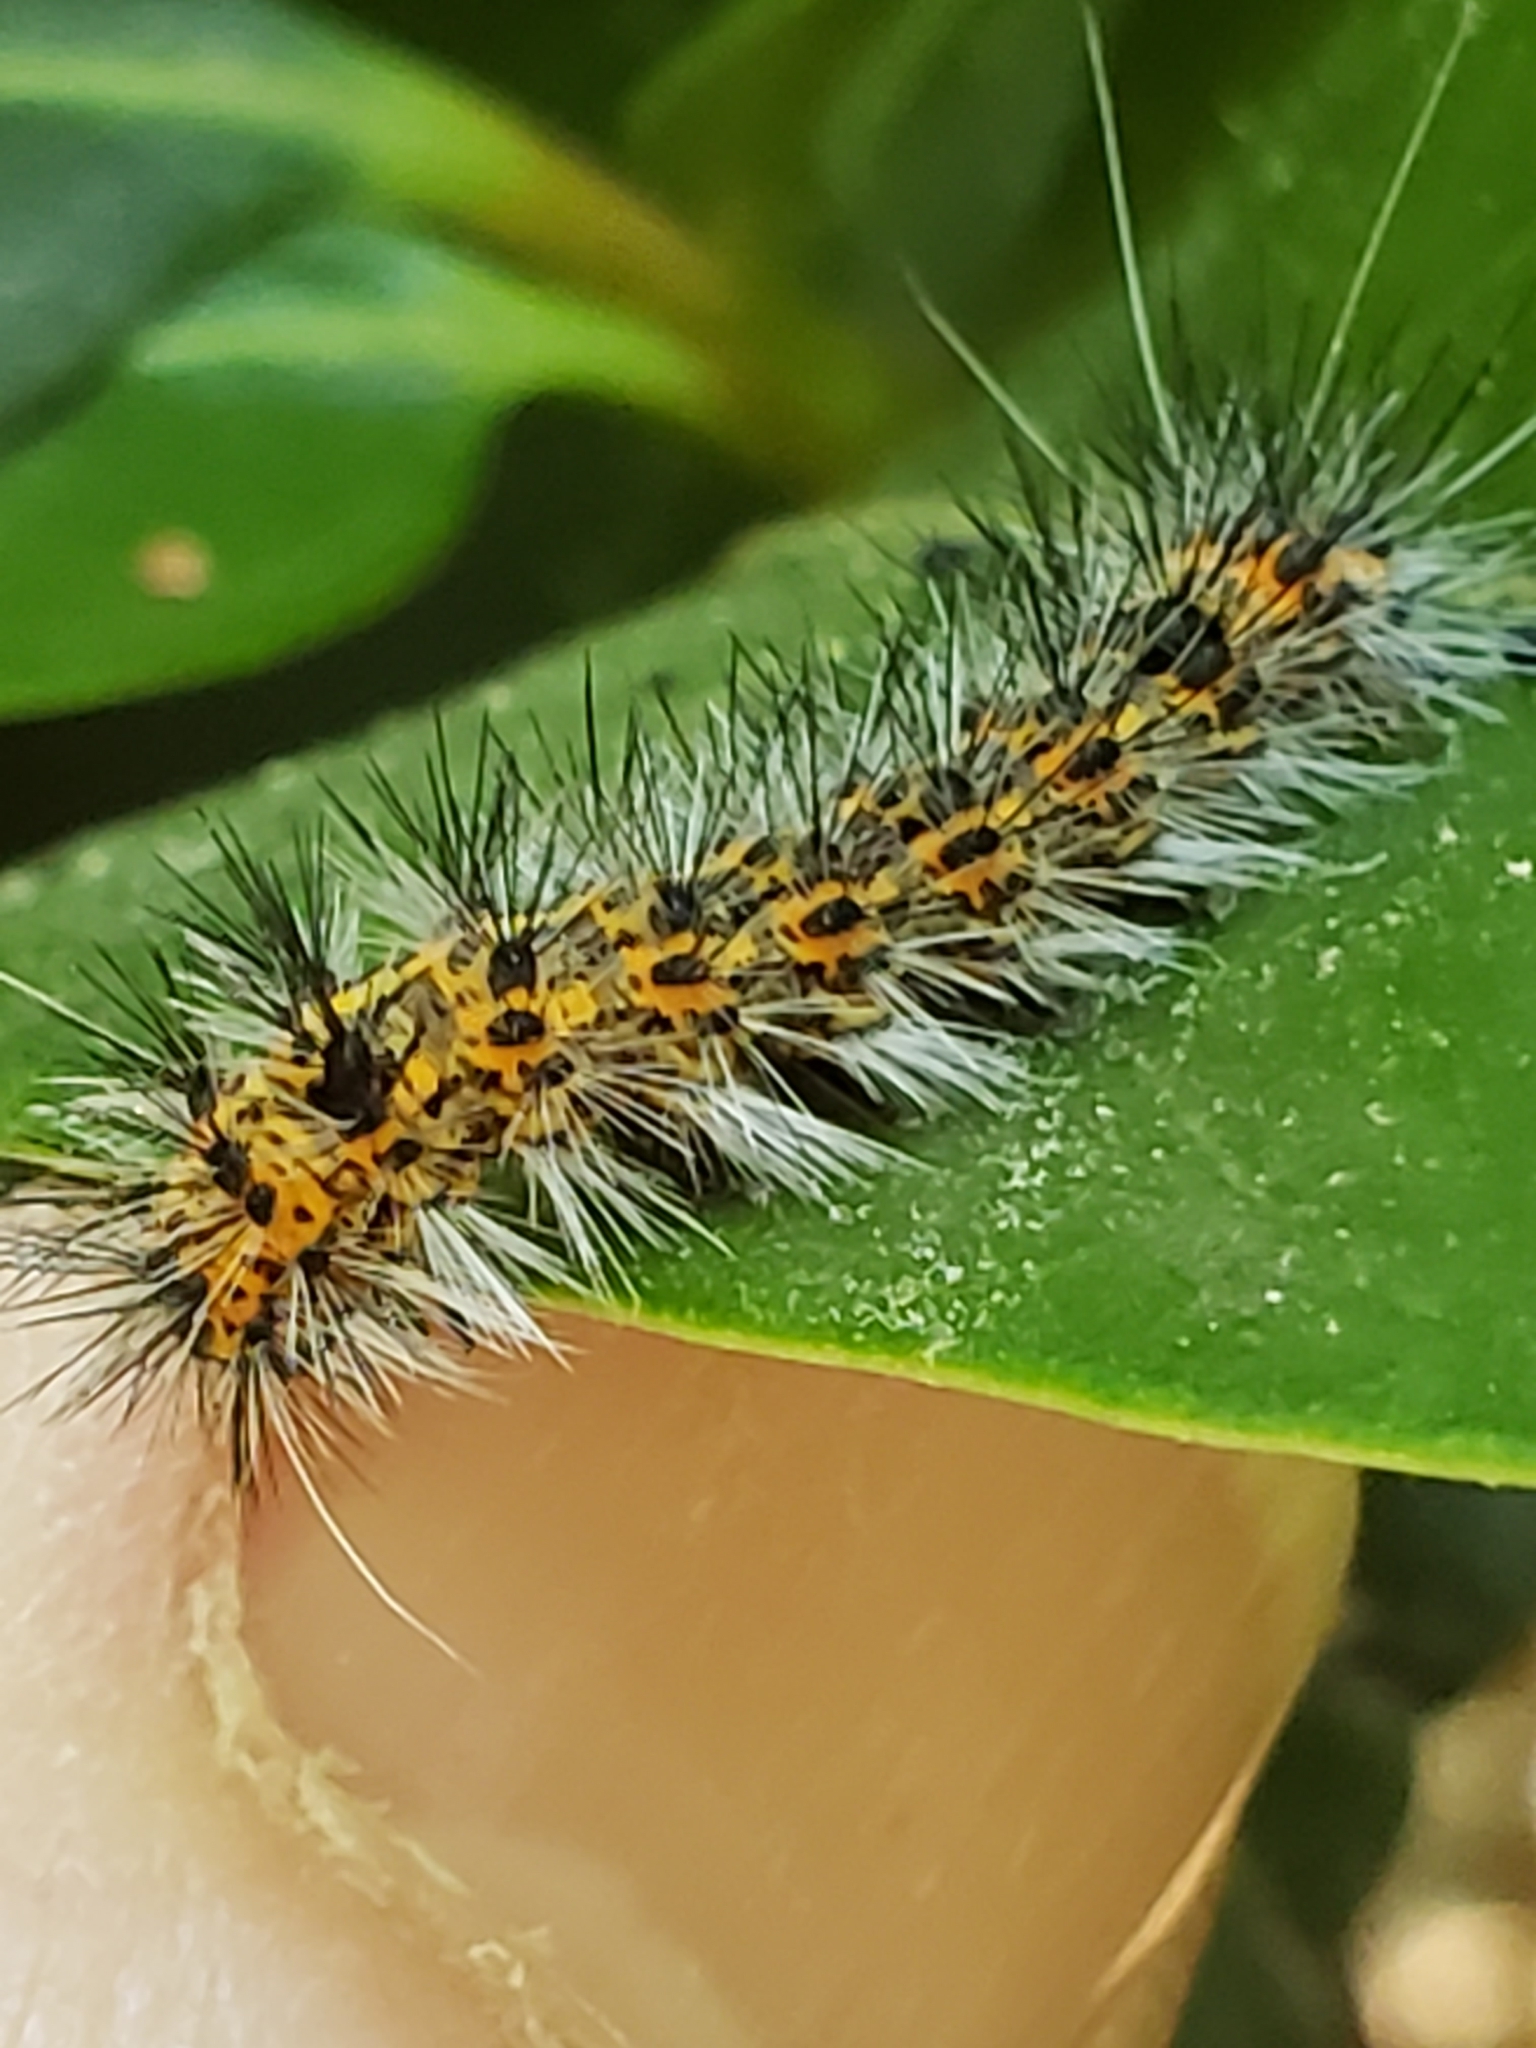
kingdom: Animalia
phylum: Arthropoda
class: Insecta
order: Lepidoptera
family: Erebidae
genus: Spilosoma
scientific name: Spilosoma dubia
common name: Dubious tiger moth
